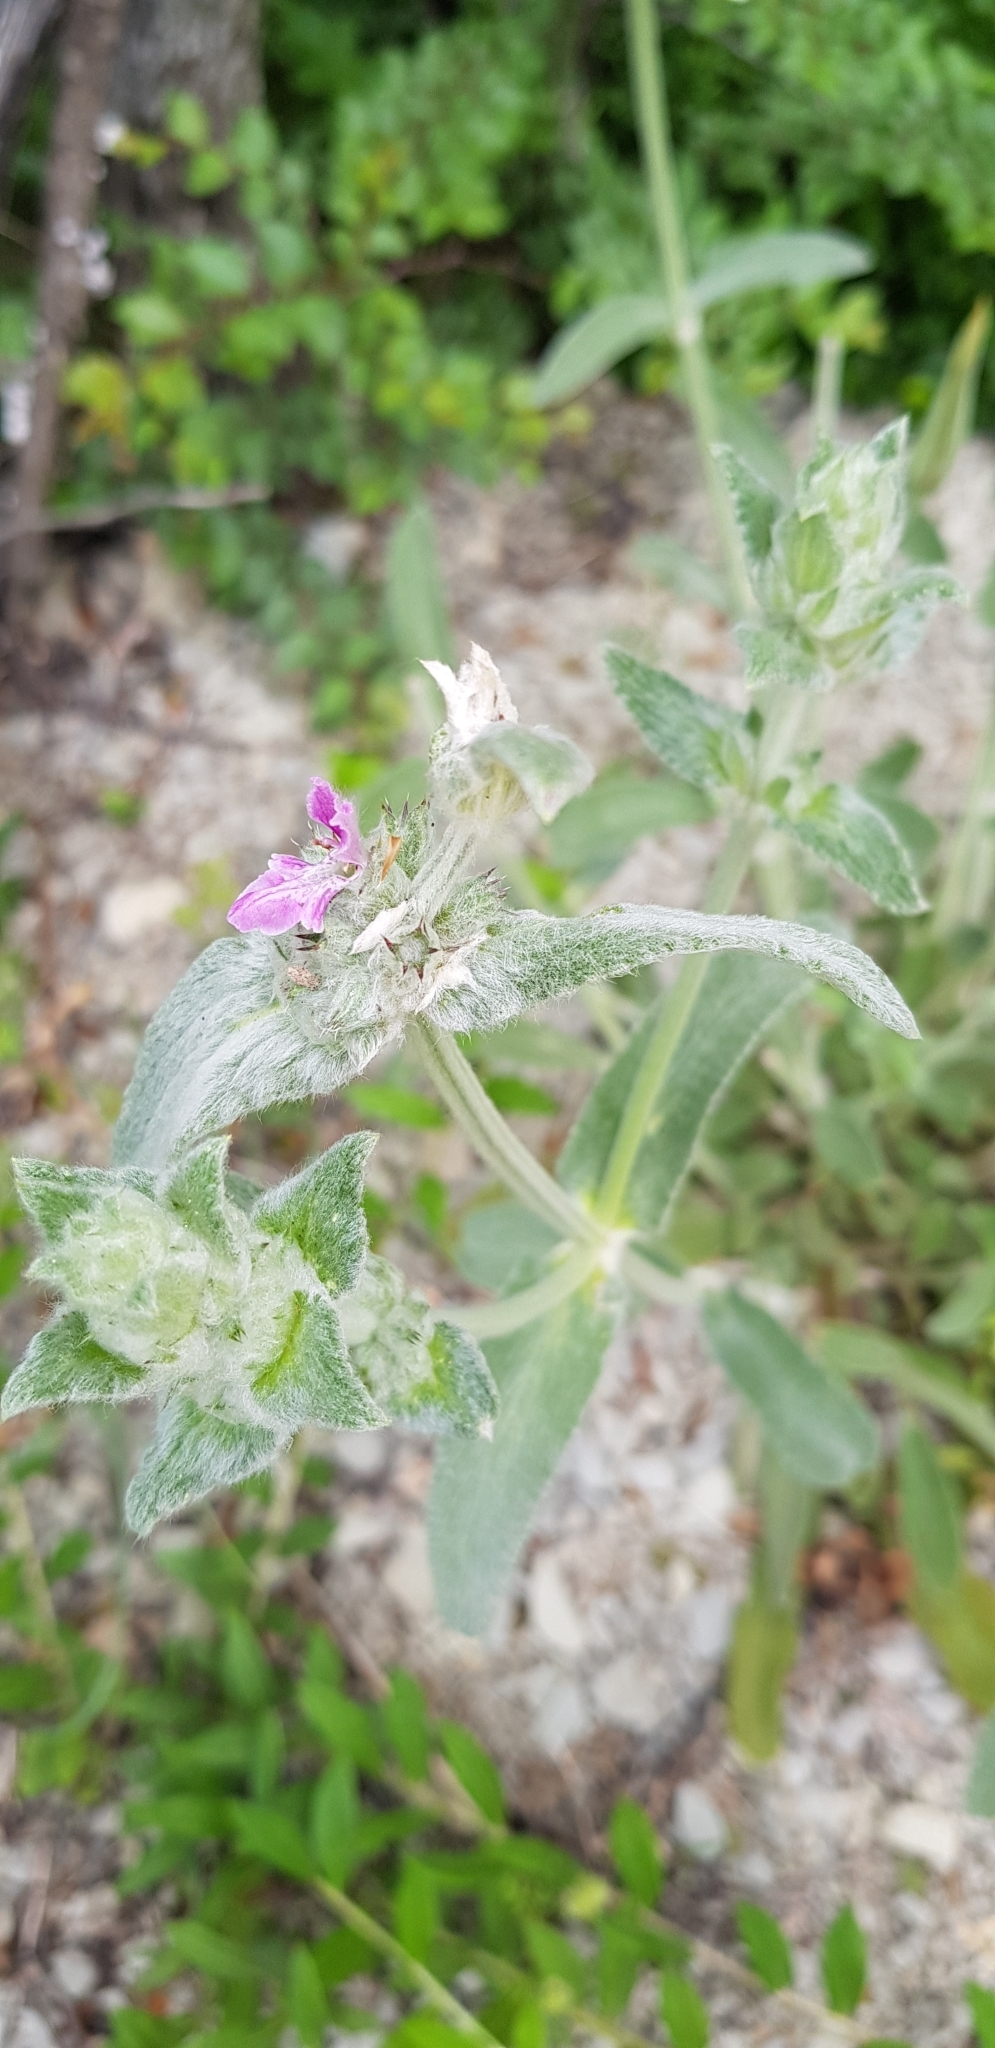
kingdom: Plantae
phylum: Tracheophyta
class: Magnoliopsida
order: Lamiales
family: Lamiaceae
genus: Stachys
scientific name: Stachys germanica
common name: Downy woundwort
